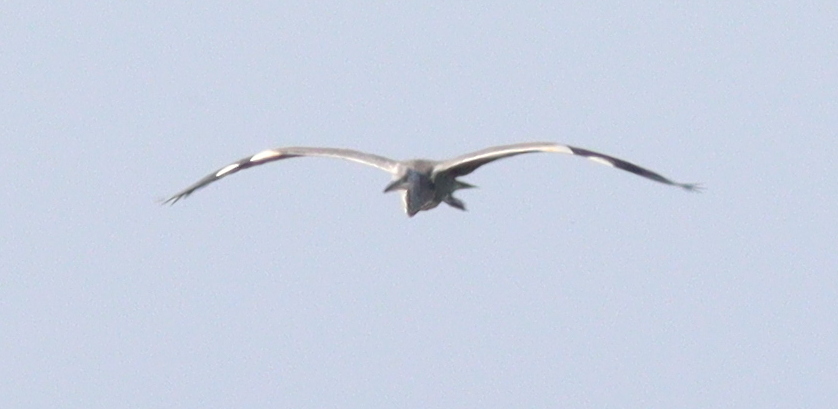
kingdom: Animalia
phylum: Chordata
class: Aves
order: Pelecaniformes
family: Ardeidae
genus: Ardea
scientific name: Ardea cinerea
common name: Grey heron
